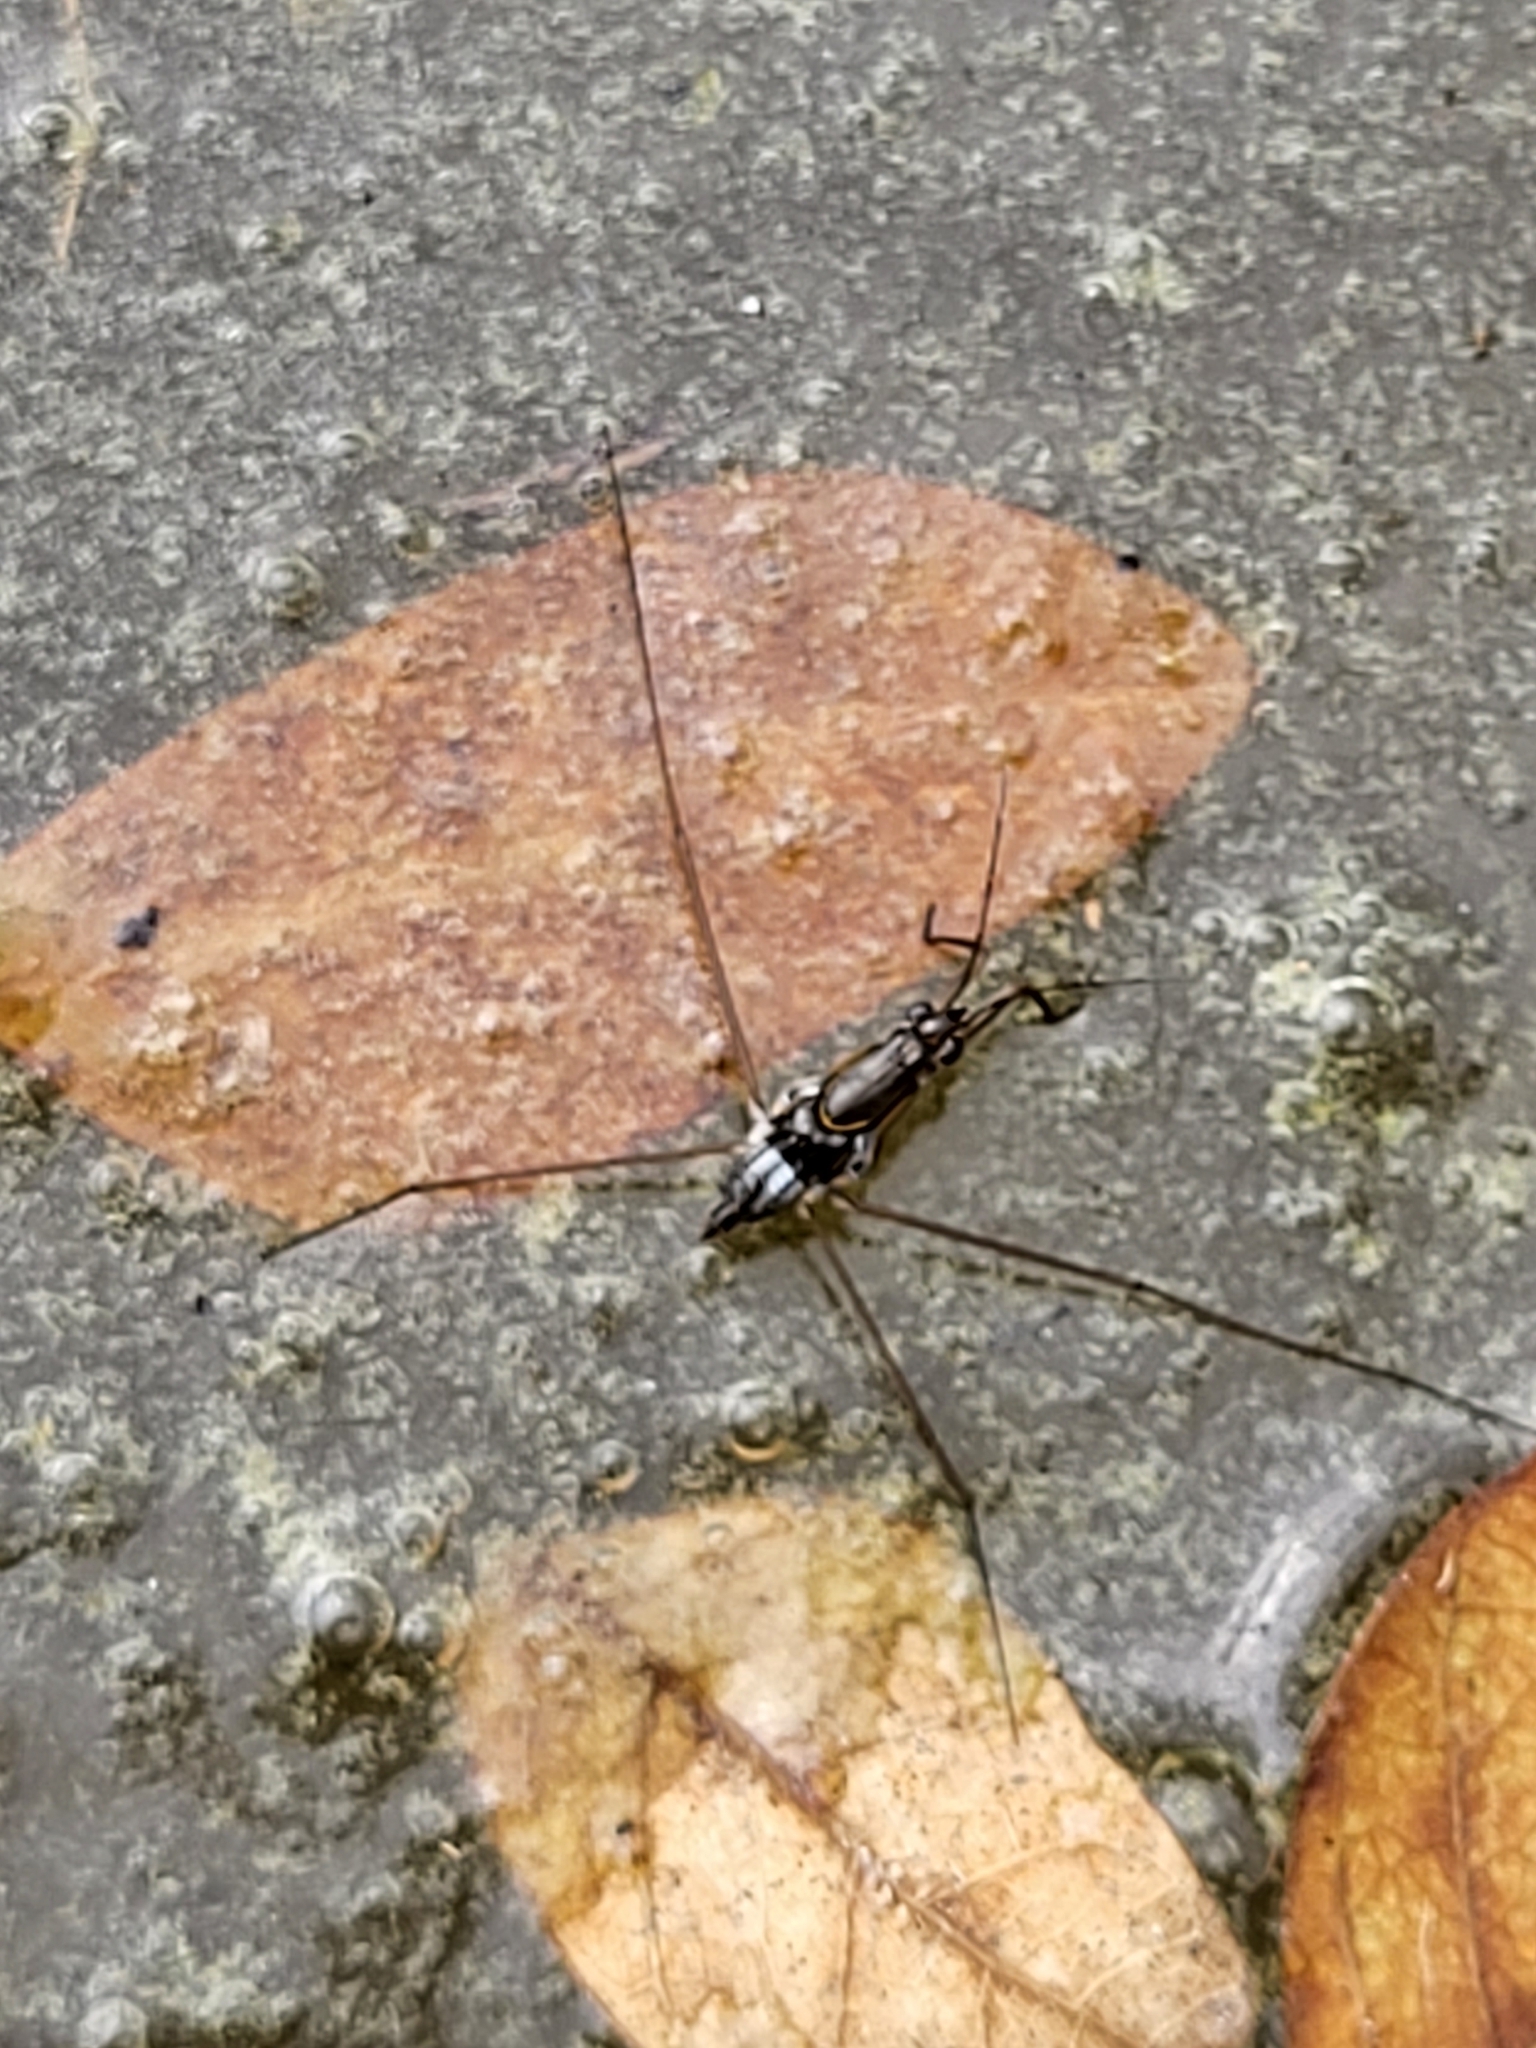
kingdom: Animalia
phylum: Arthropoda
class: Insecta
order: Hemiptera
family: Gerridae
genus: Limnogonus
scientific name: Limnogonus fossarum
